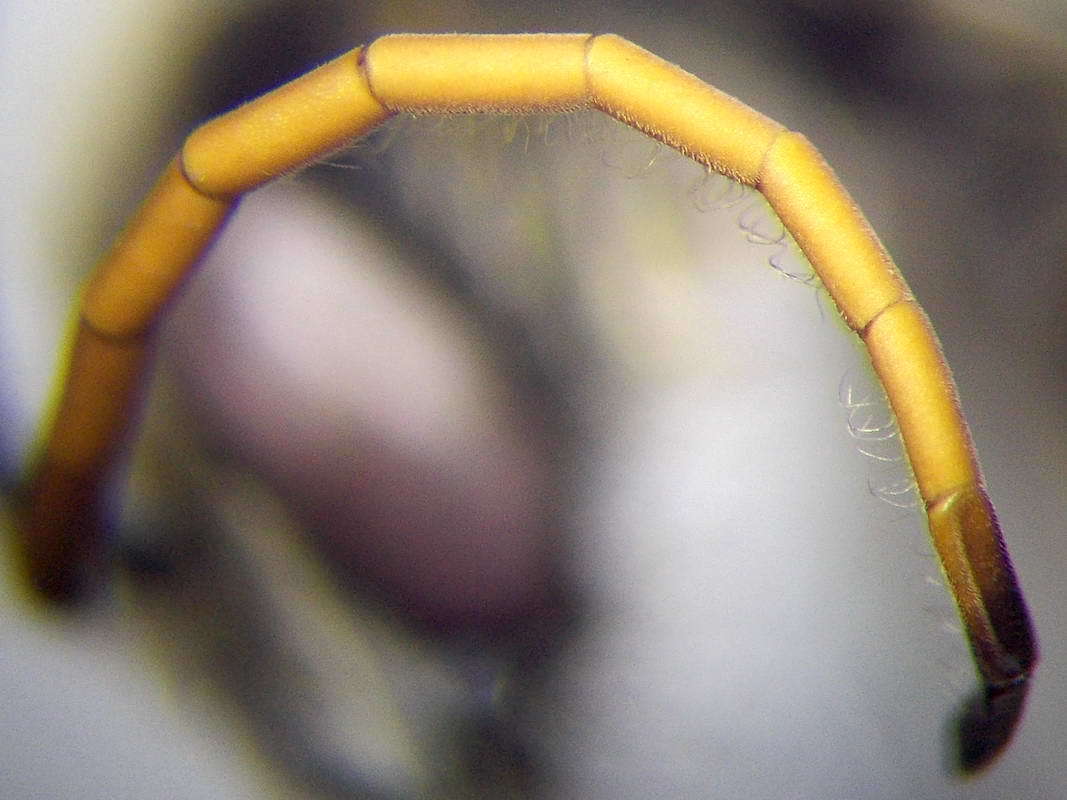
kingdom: Animalia
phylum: Arthropoda
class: Insecta
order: Hymenoptera
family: Halictidae
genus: Halictus
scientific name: Halictus quadricinctus
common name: Giant furrow bee
